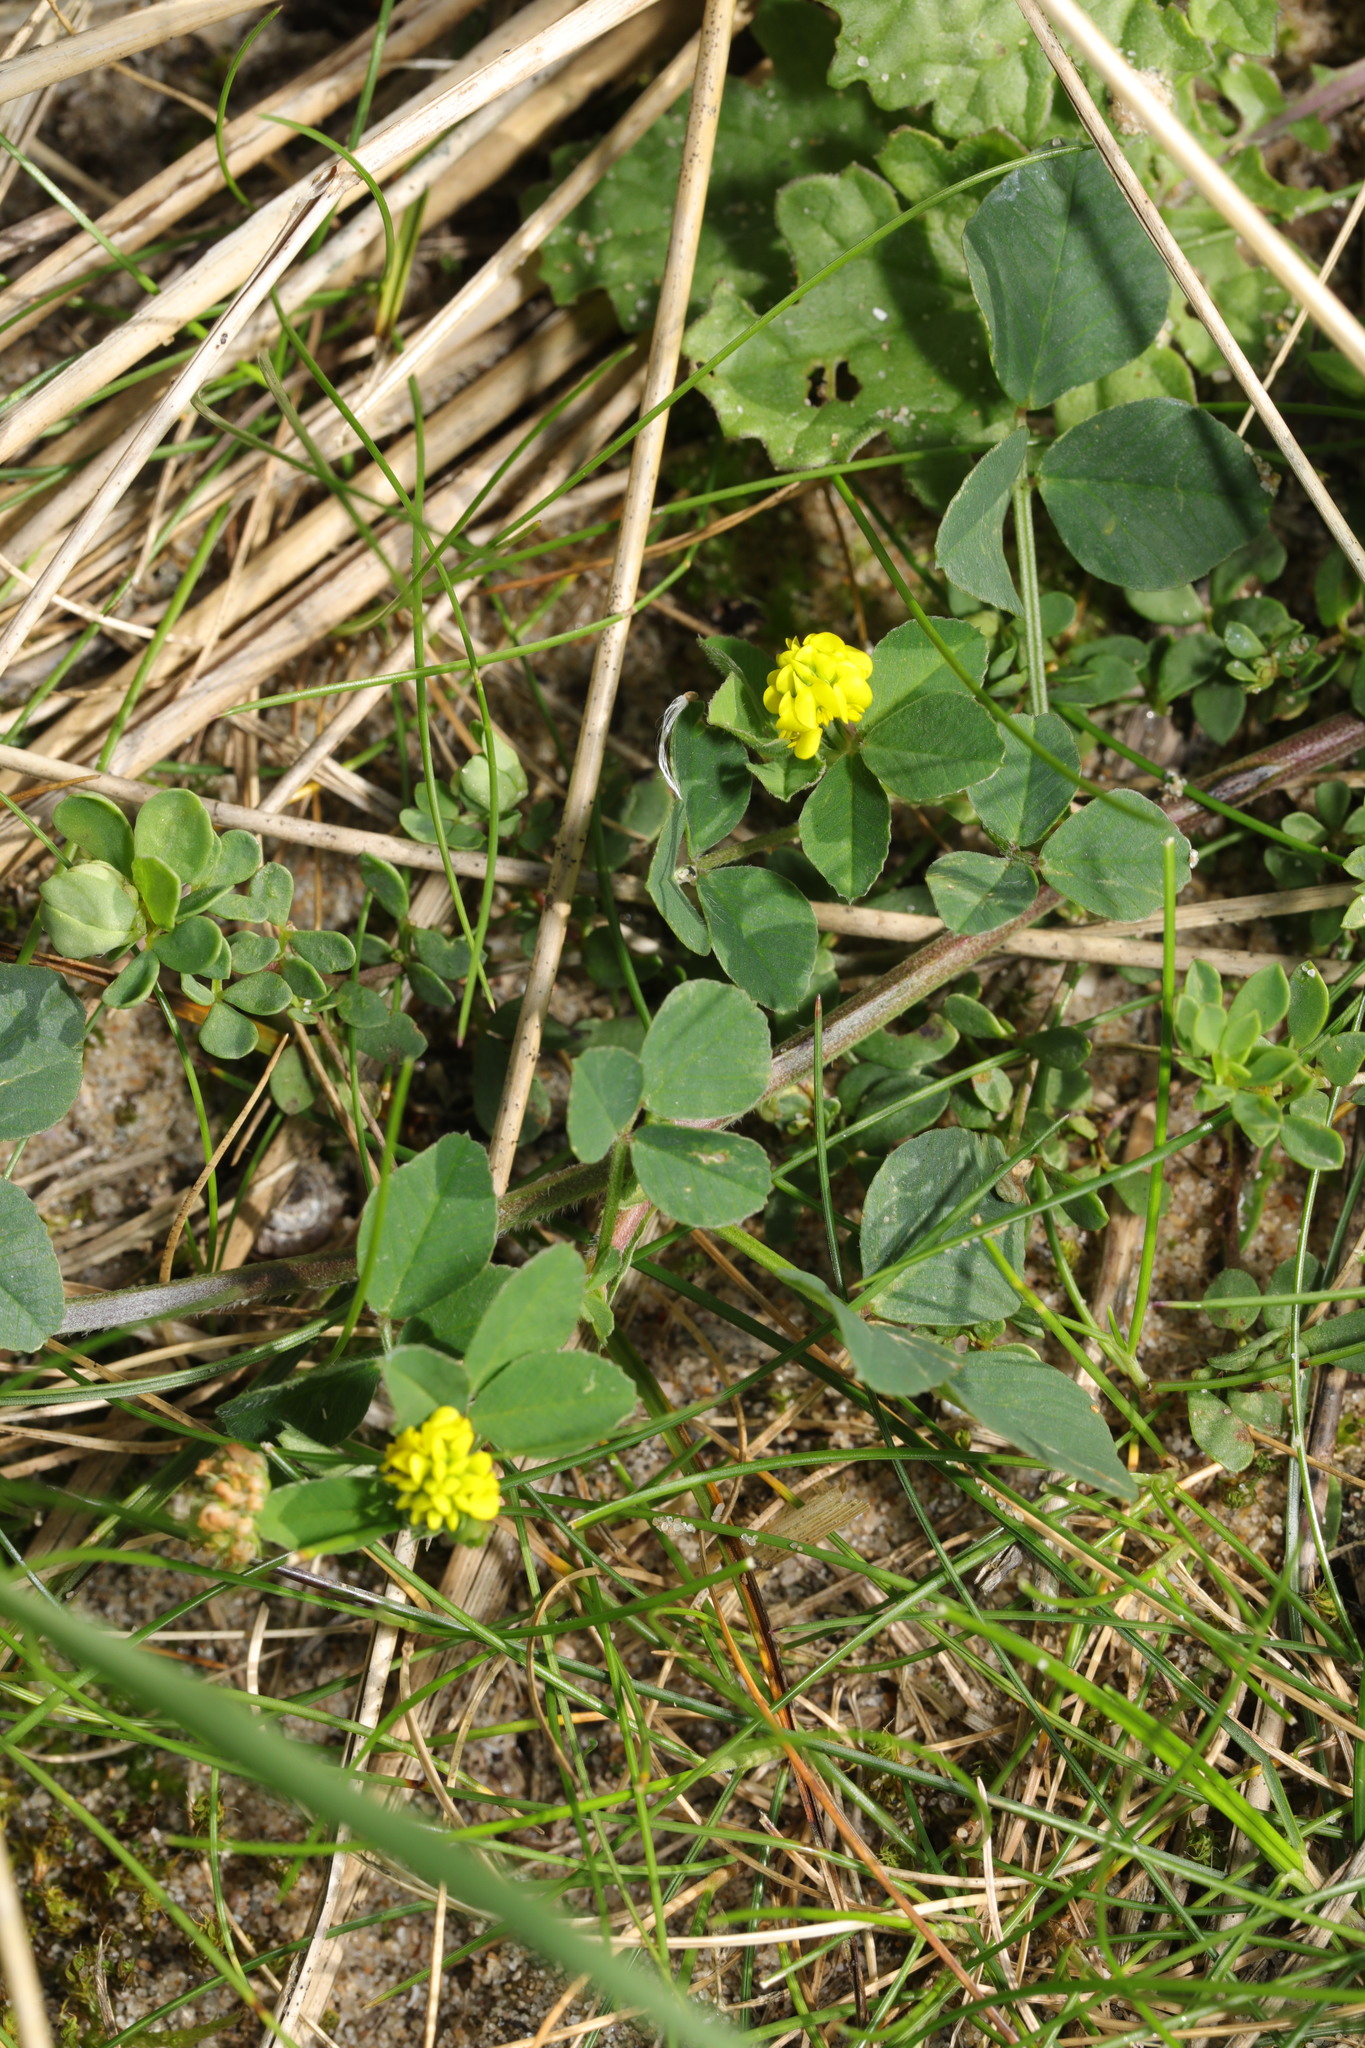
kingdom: Plantae
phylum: Tracheophyta
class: Magnoliopsida
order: Fabales
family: Fabaceae
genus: Medicago
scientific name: Medicago lupulina
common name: Black medick
